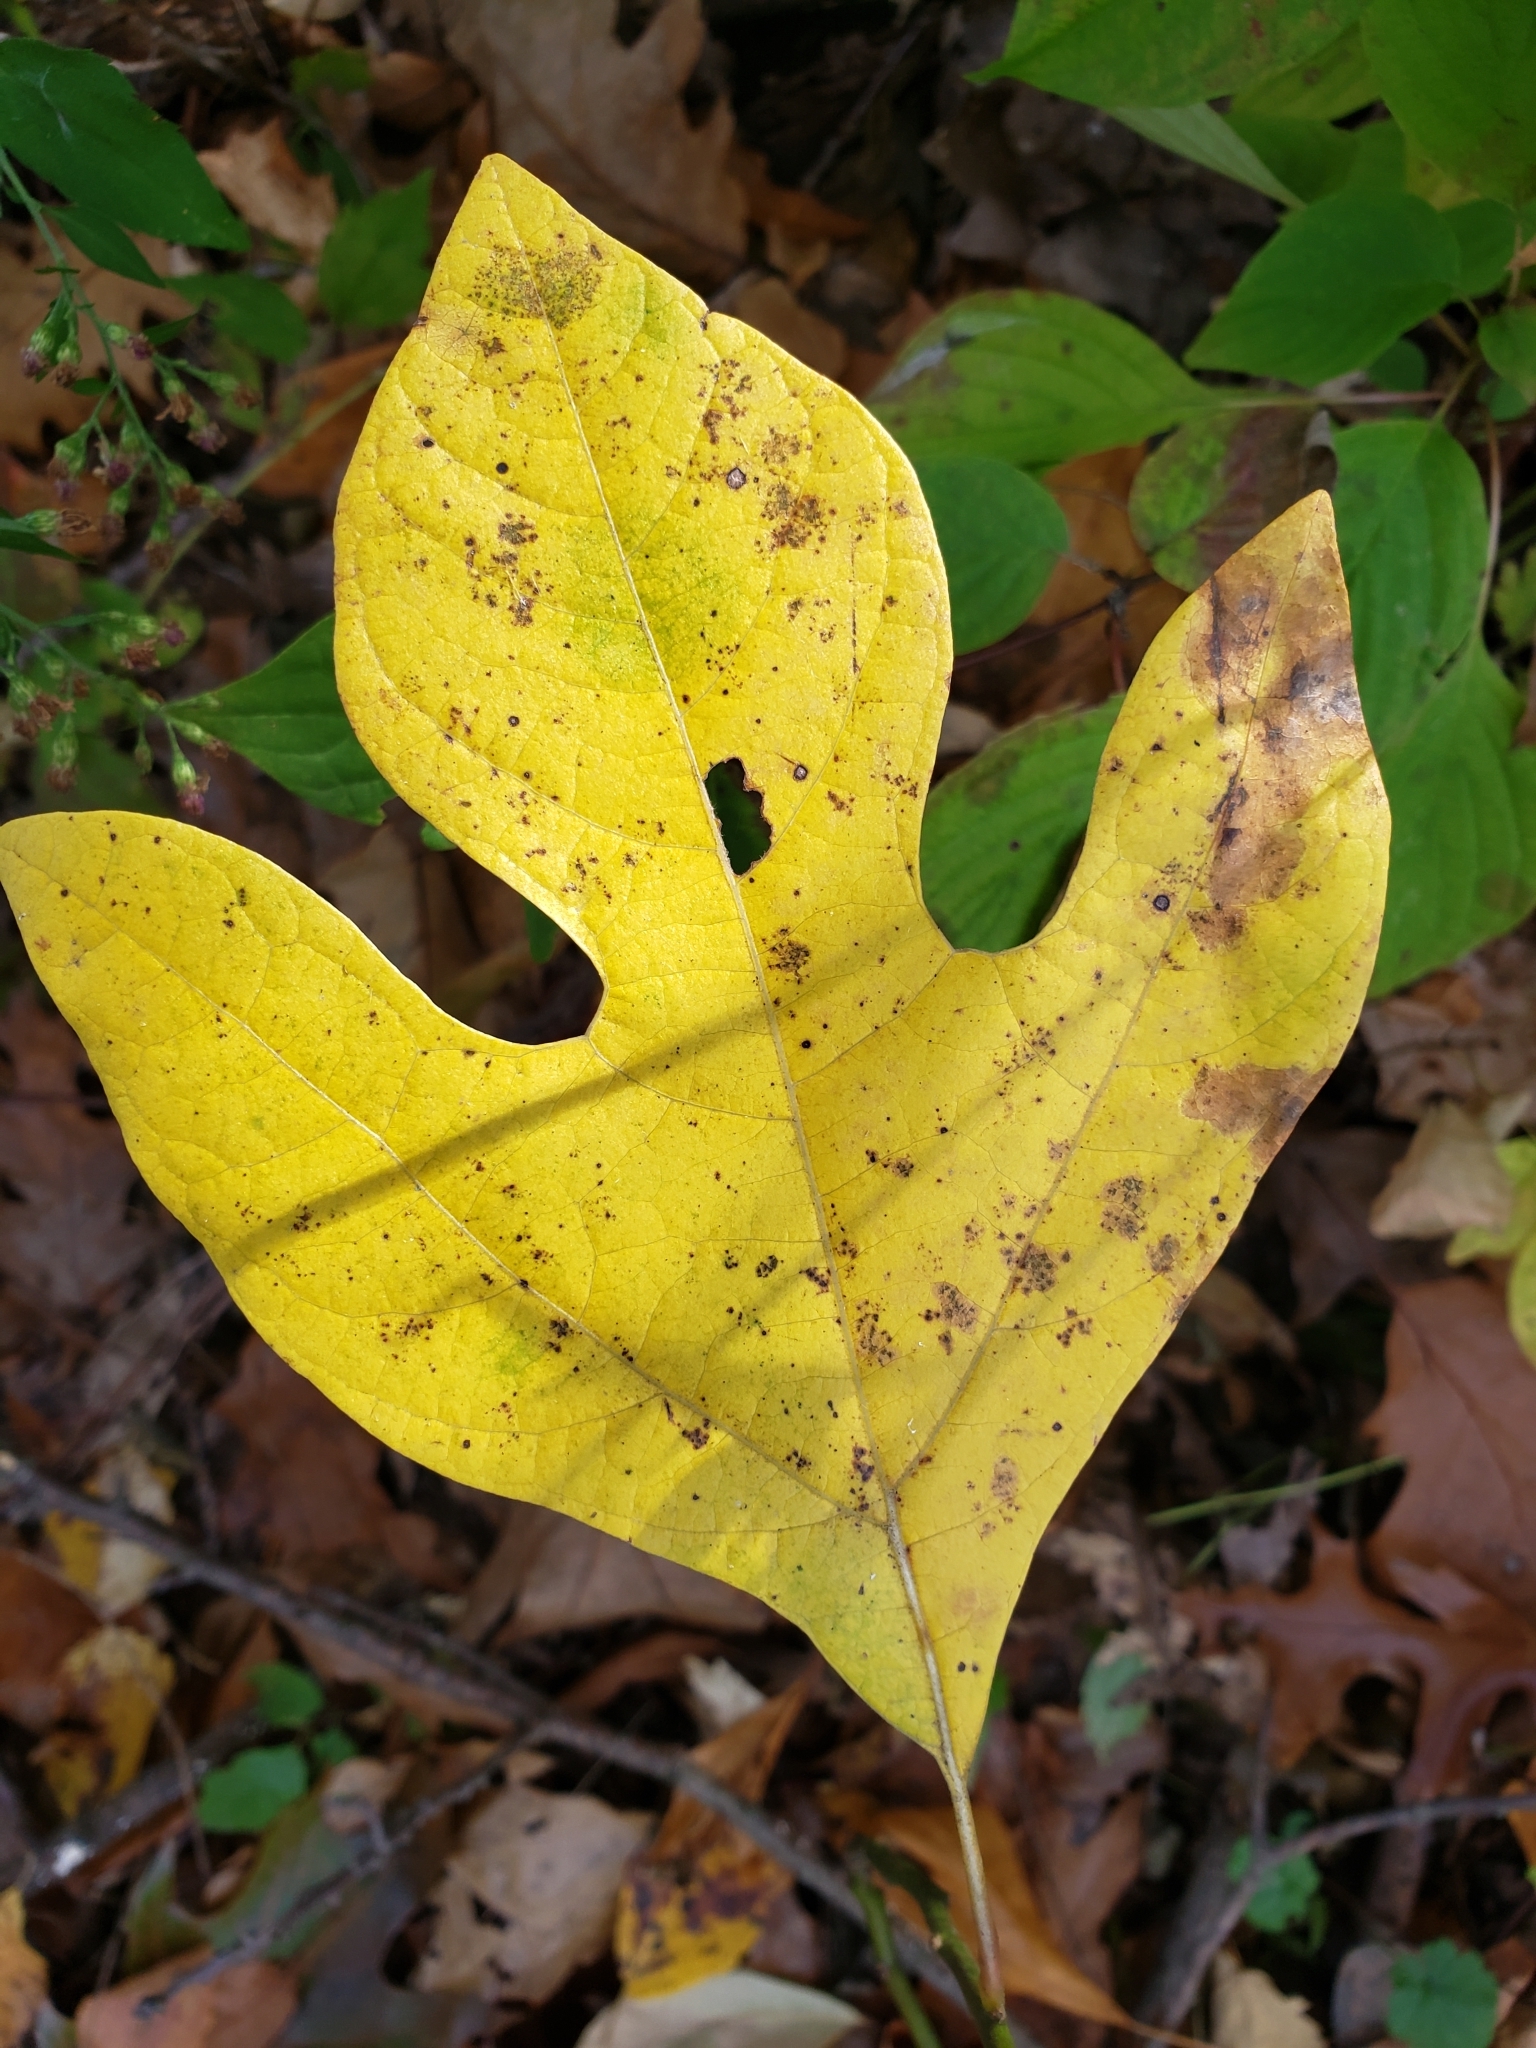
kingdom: Plantae
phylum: Tracheophyta
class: Magnoliopsida
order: Laurales
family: Lauraceae
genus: Sassafras
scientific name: Sassafras albidum
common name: Sassafras
